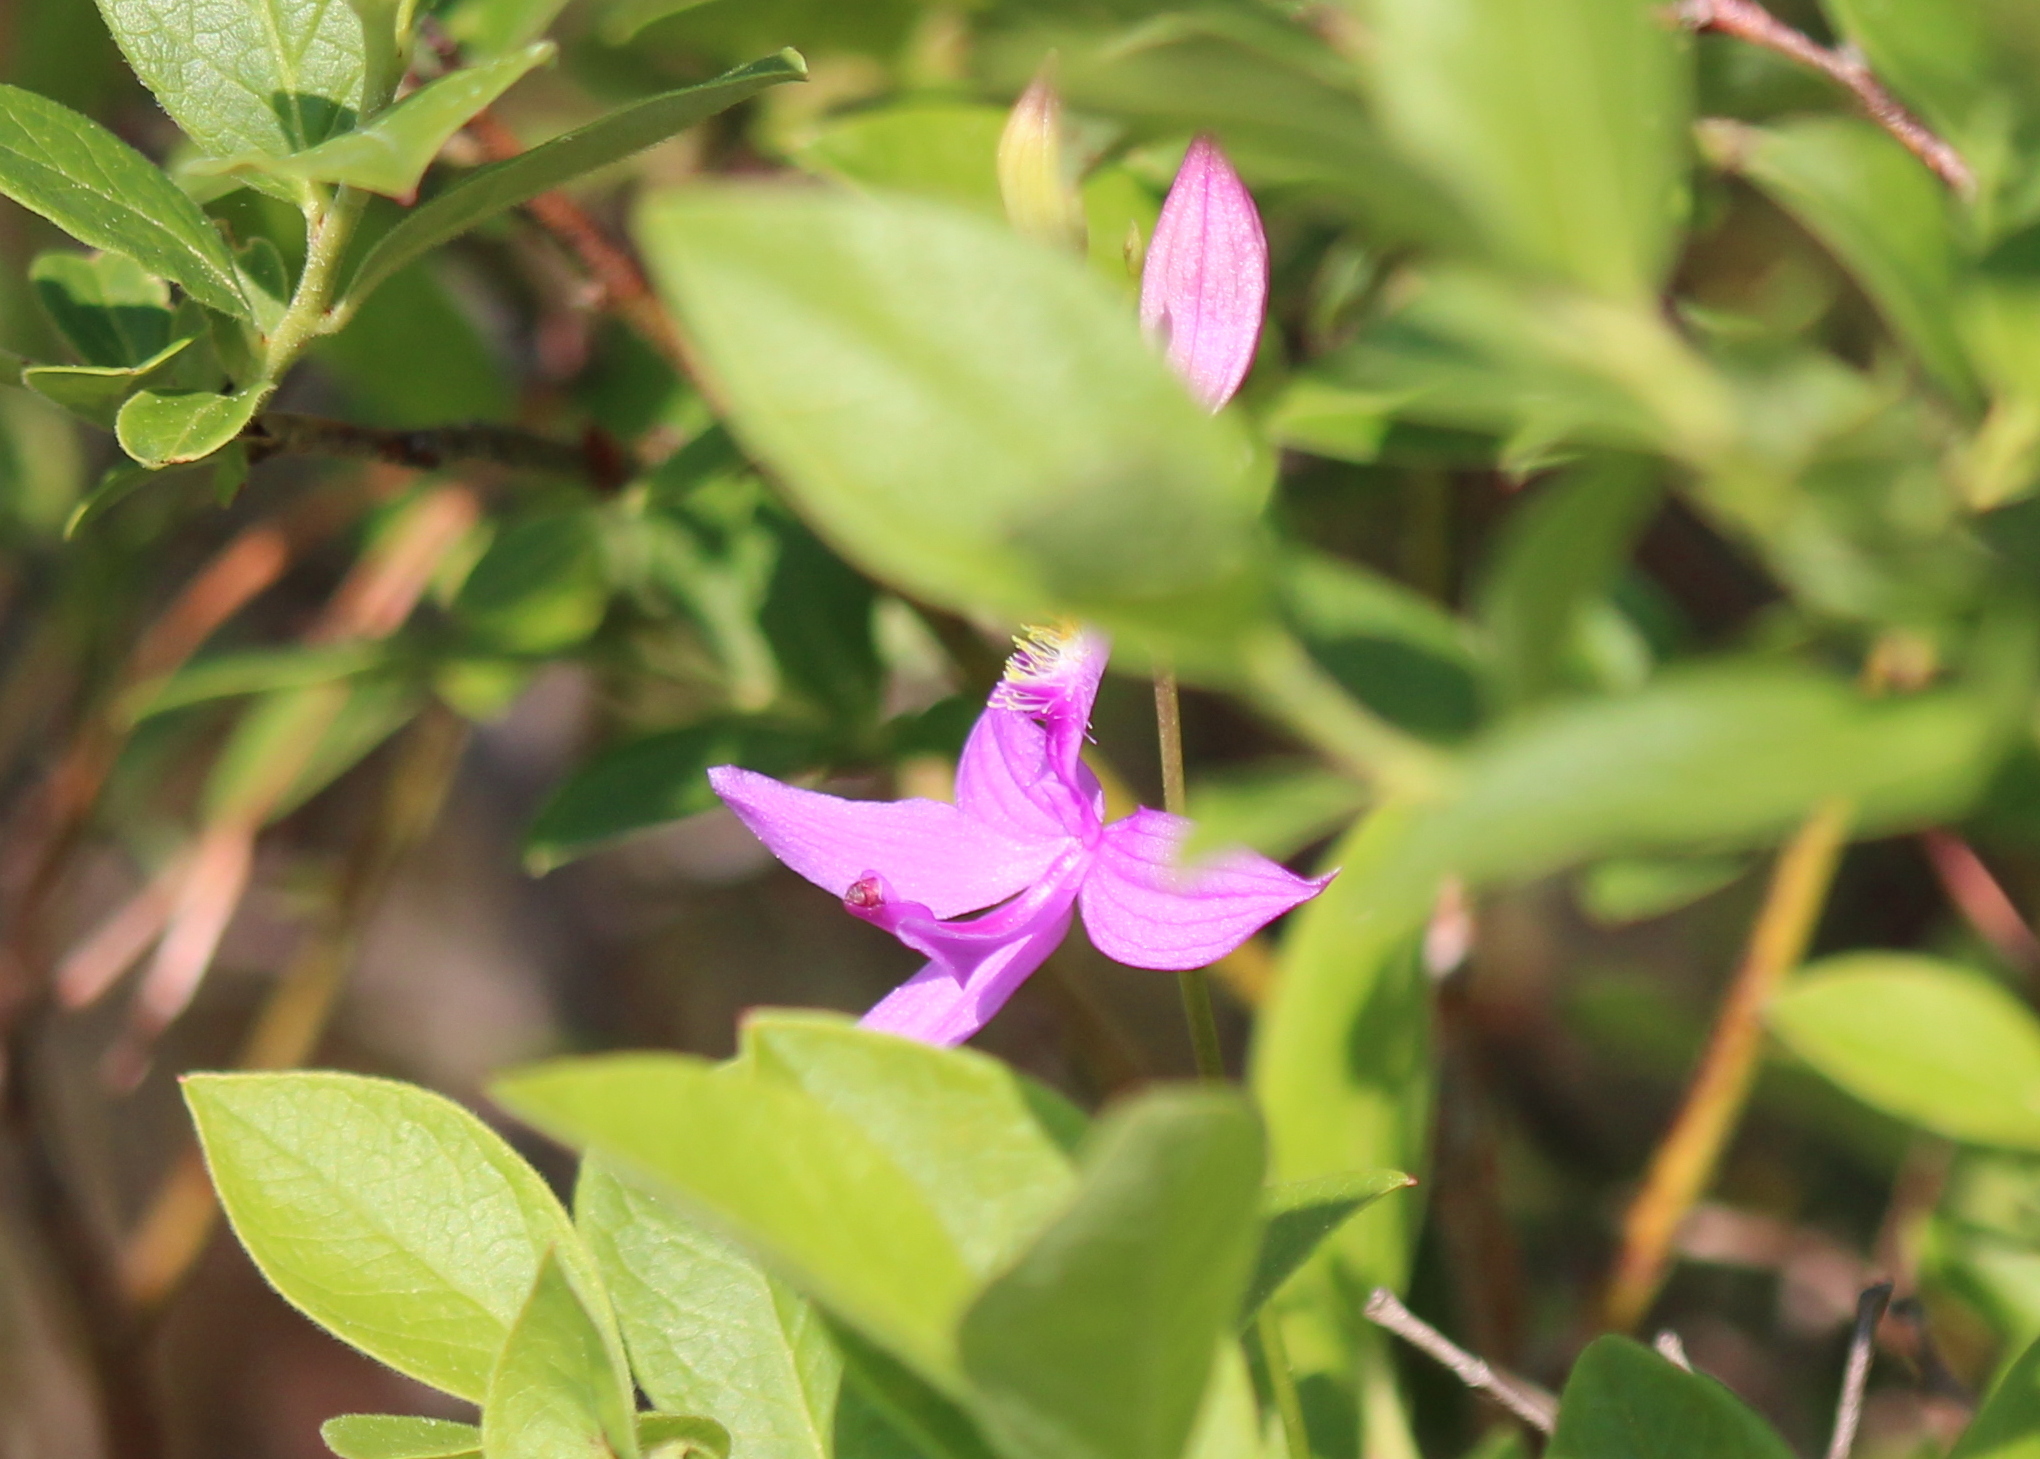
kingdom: Plantae
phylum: Tracheophyta
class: Liliopsida
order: Asparagales
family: Orchidaceae
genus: Calopogon
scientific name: Calopogon tuberosus
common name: Grass-pink
